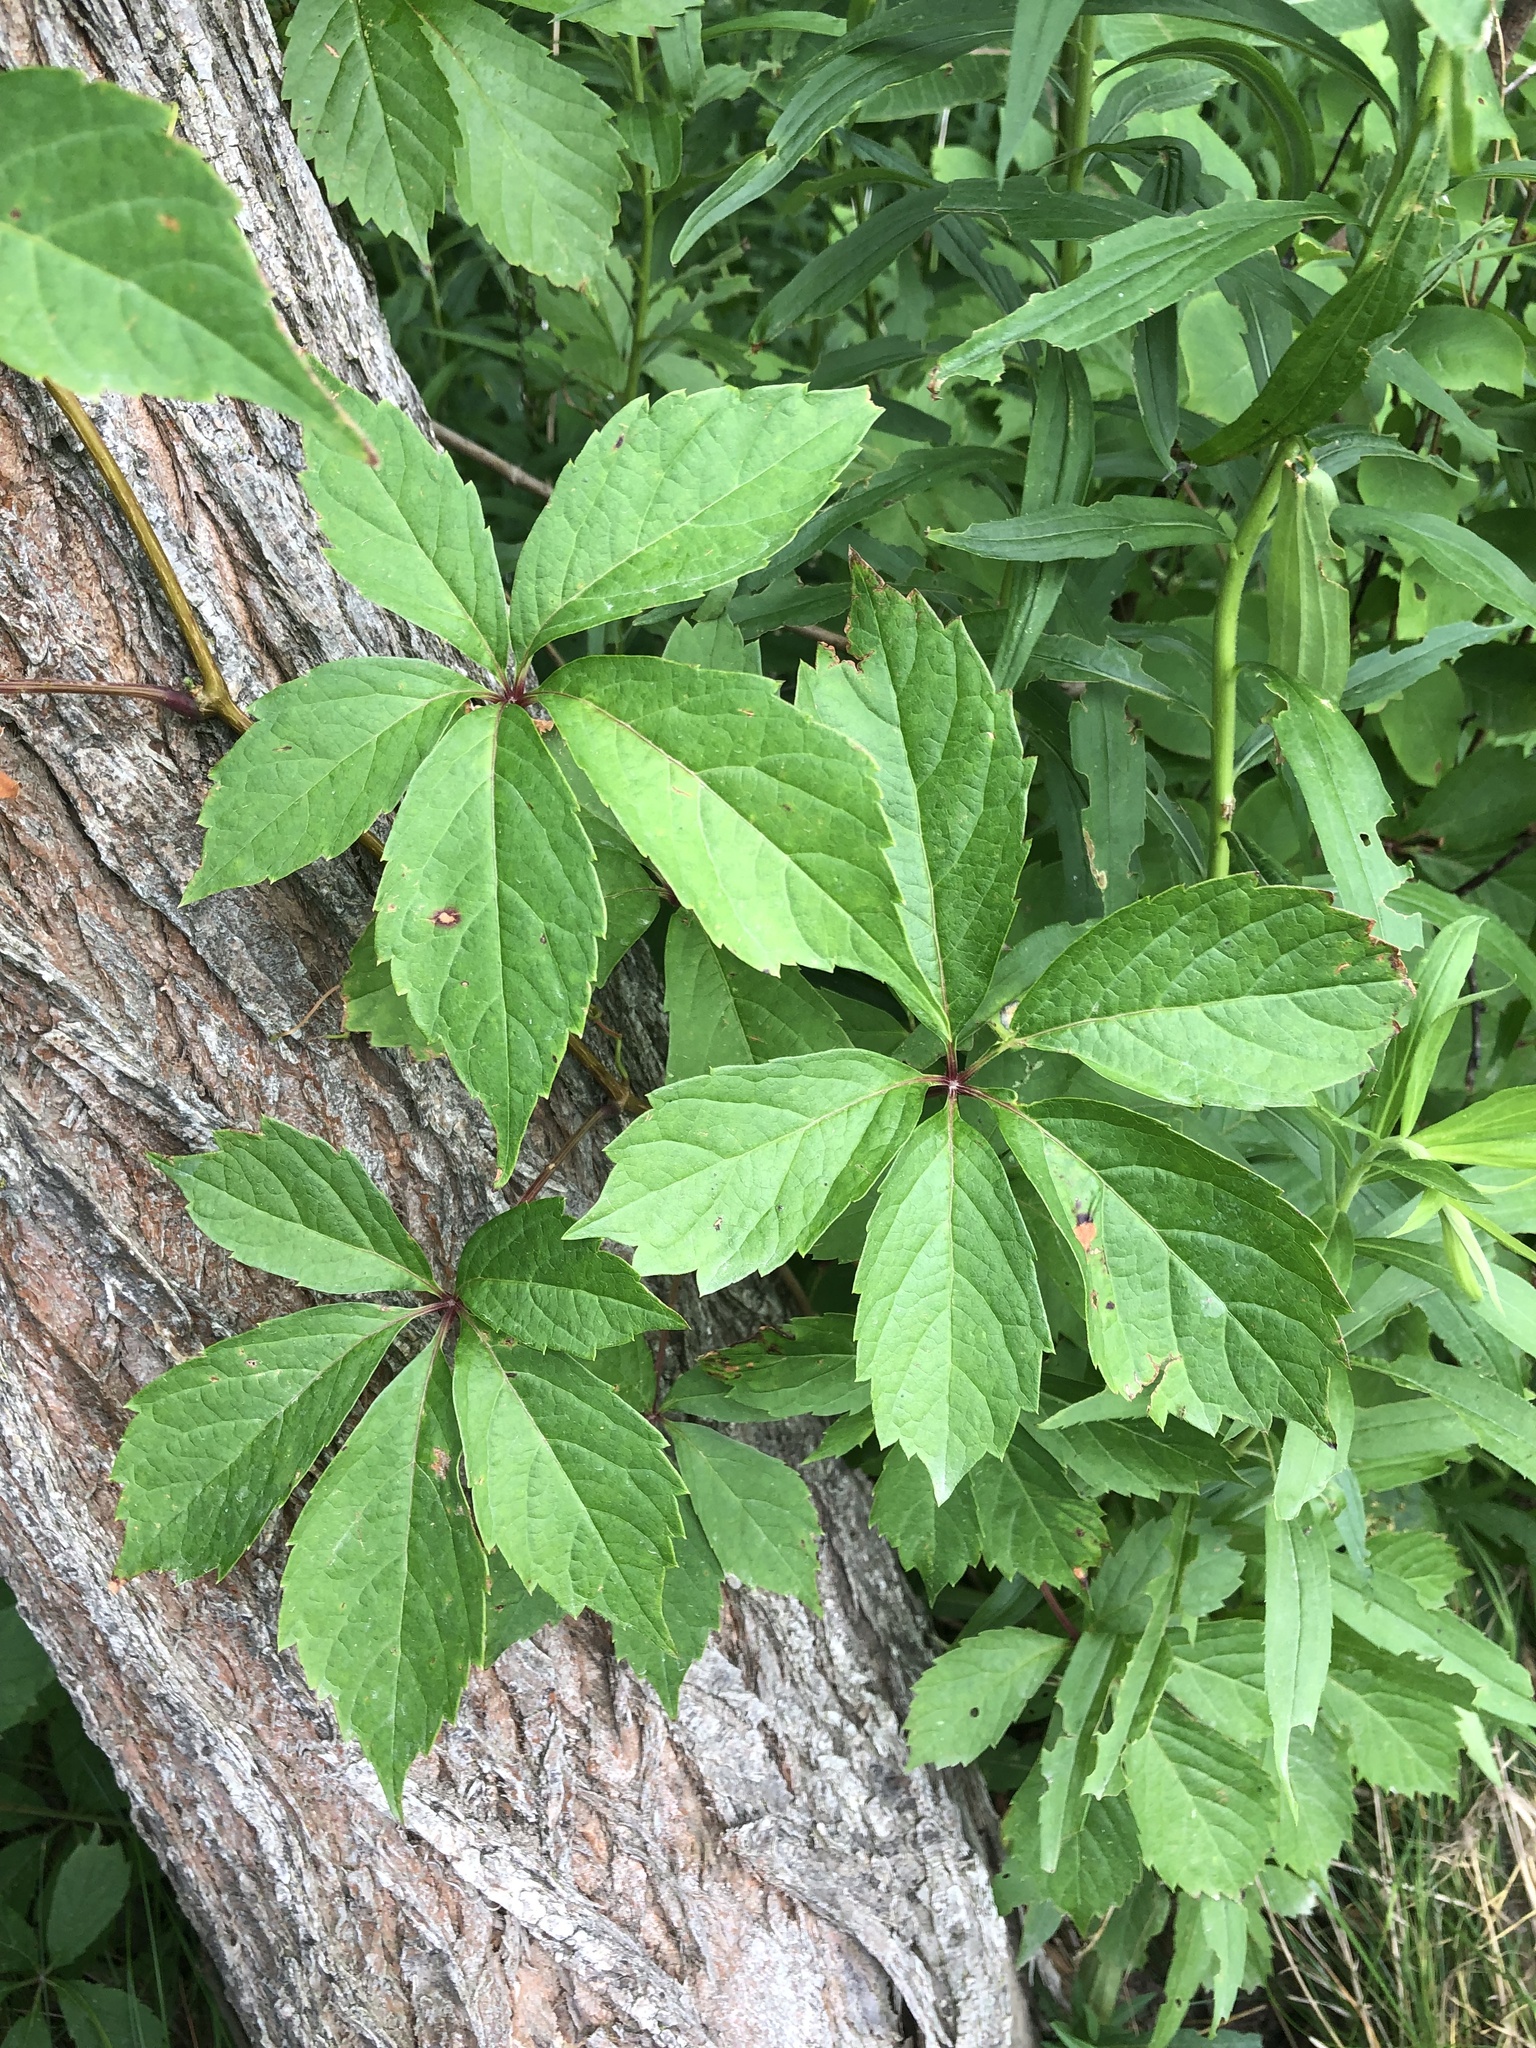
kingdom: Plantae
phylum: Tracheophyta
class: Magnoliopsida
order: Vitales
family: Vitaceae
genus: Parthenocissus
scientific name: Parthenocissus inserta
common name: False virginia-creeper
